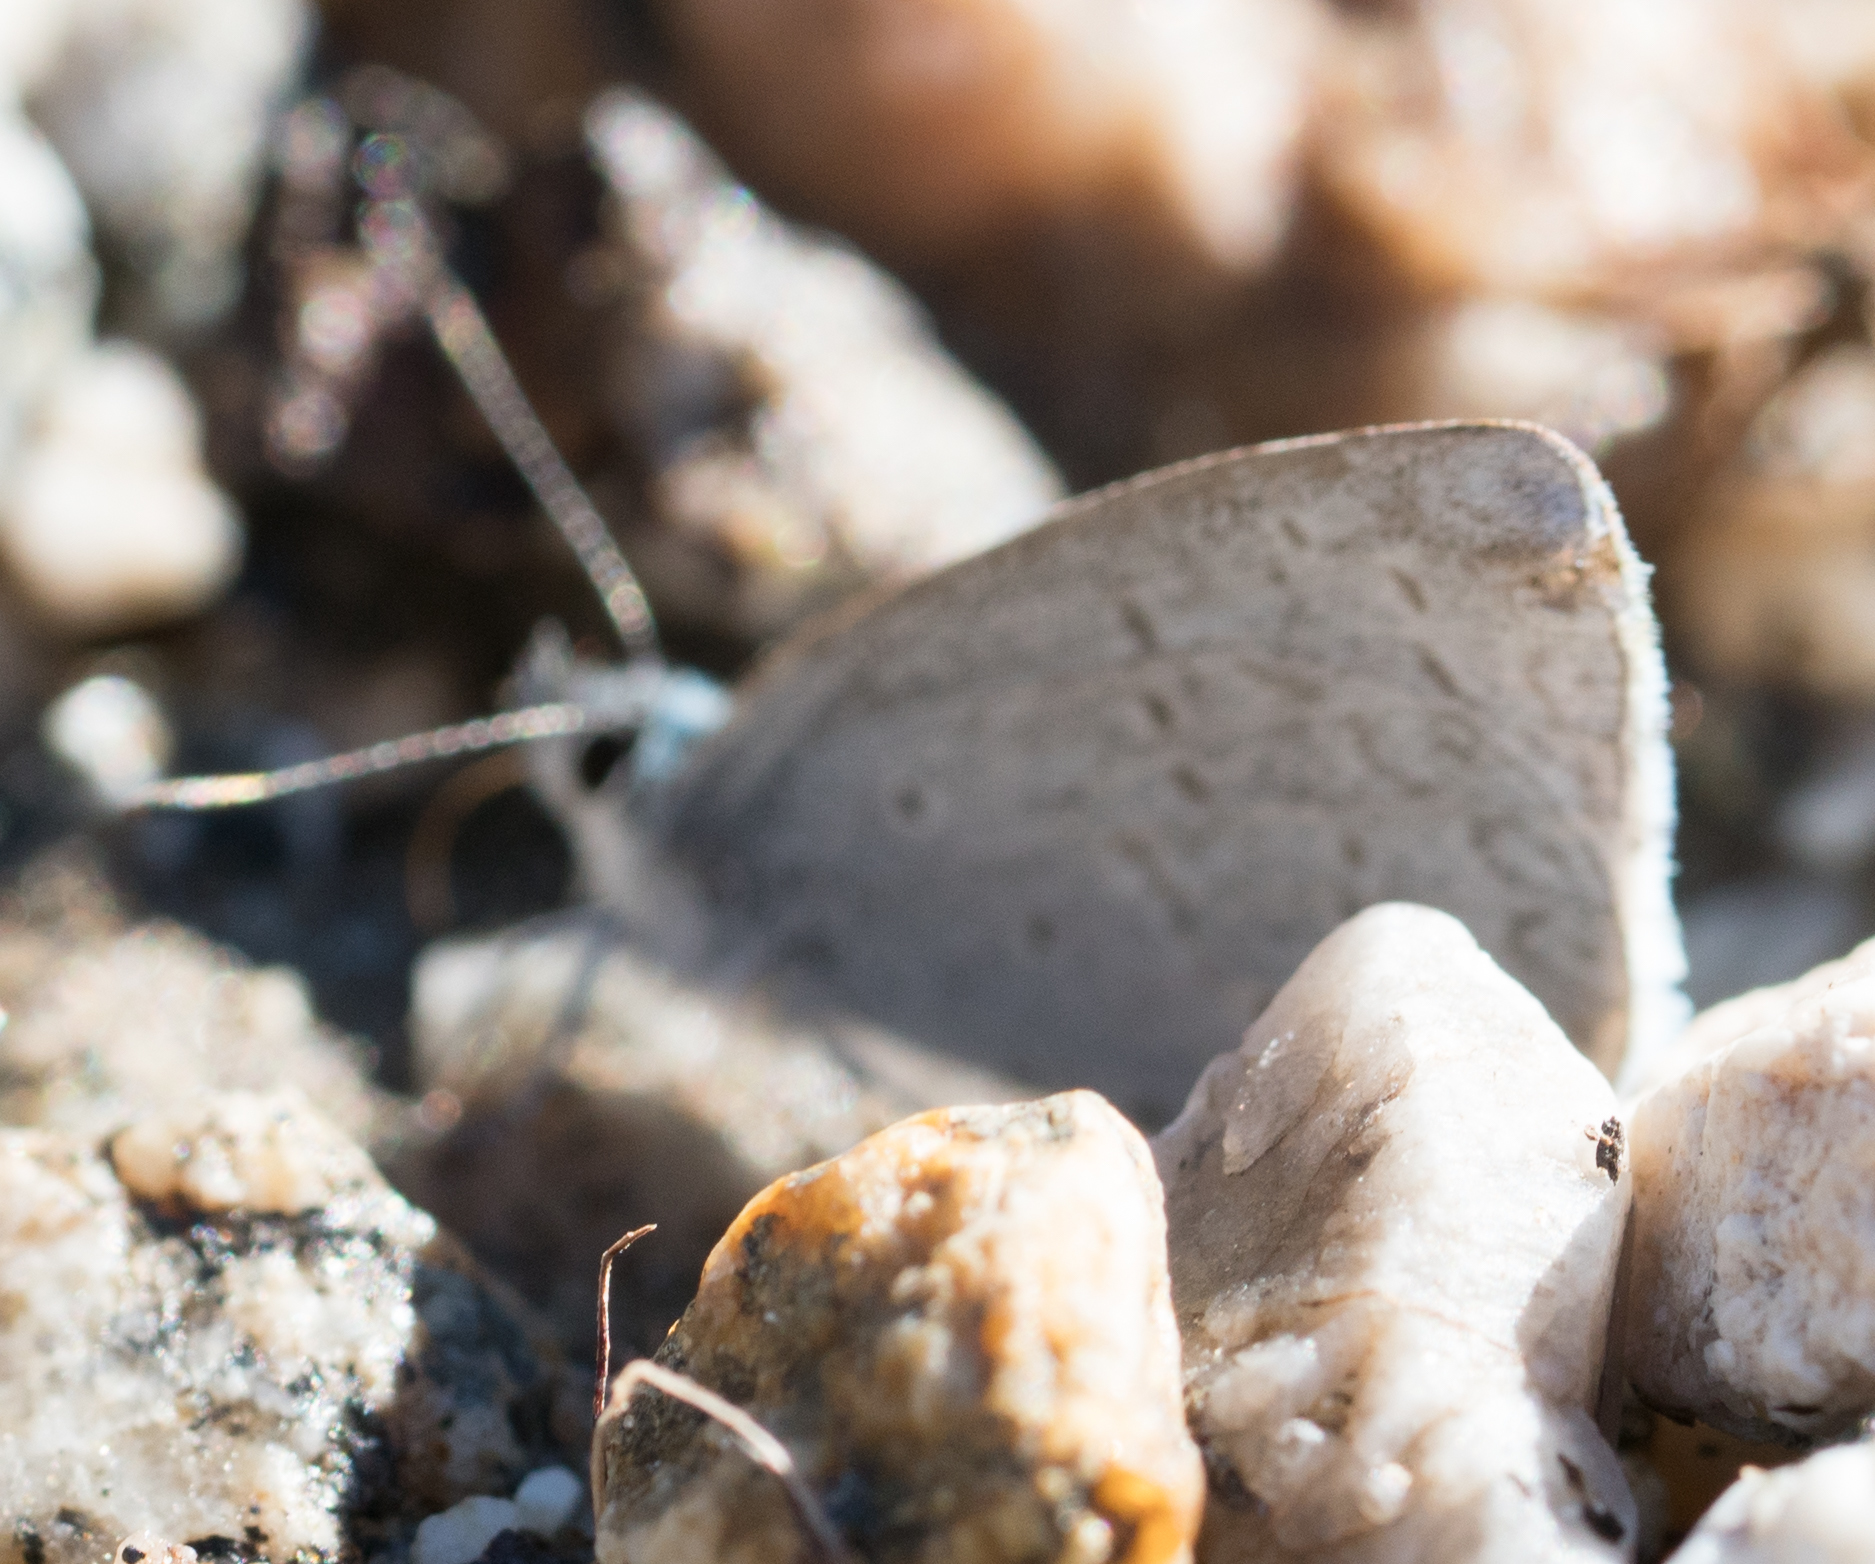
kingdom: Animalia
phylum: Arthropoda
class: Insecta
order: Lepidoptera
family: Lycaenidae
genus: Celastrina
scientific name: Celastrina ladon
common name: Spring azure
